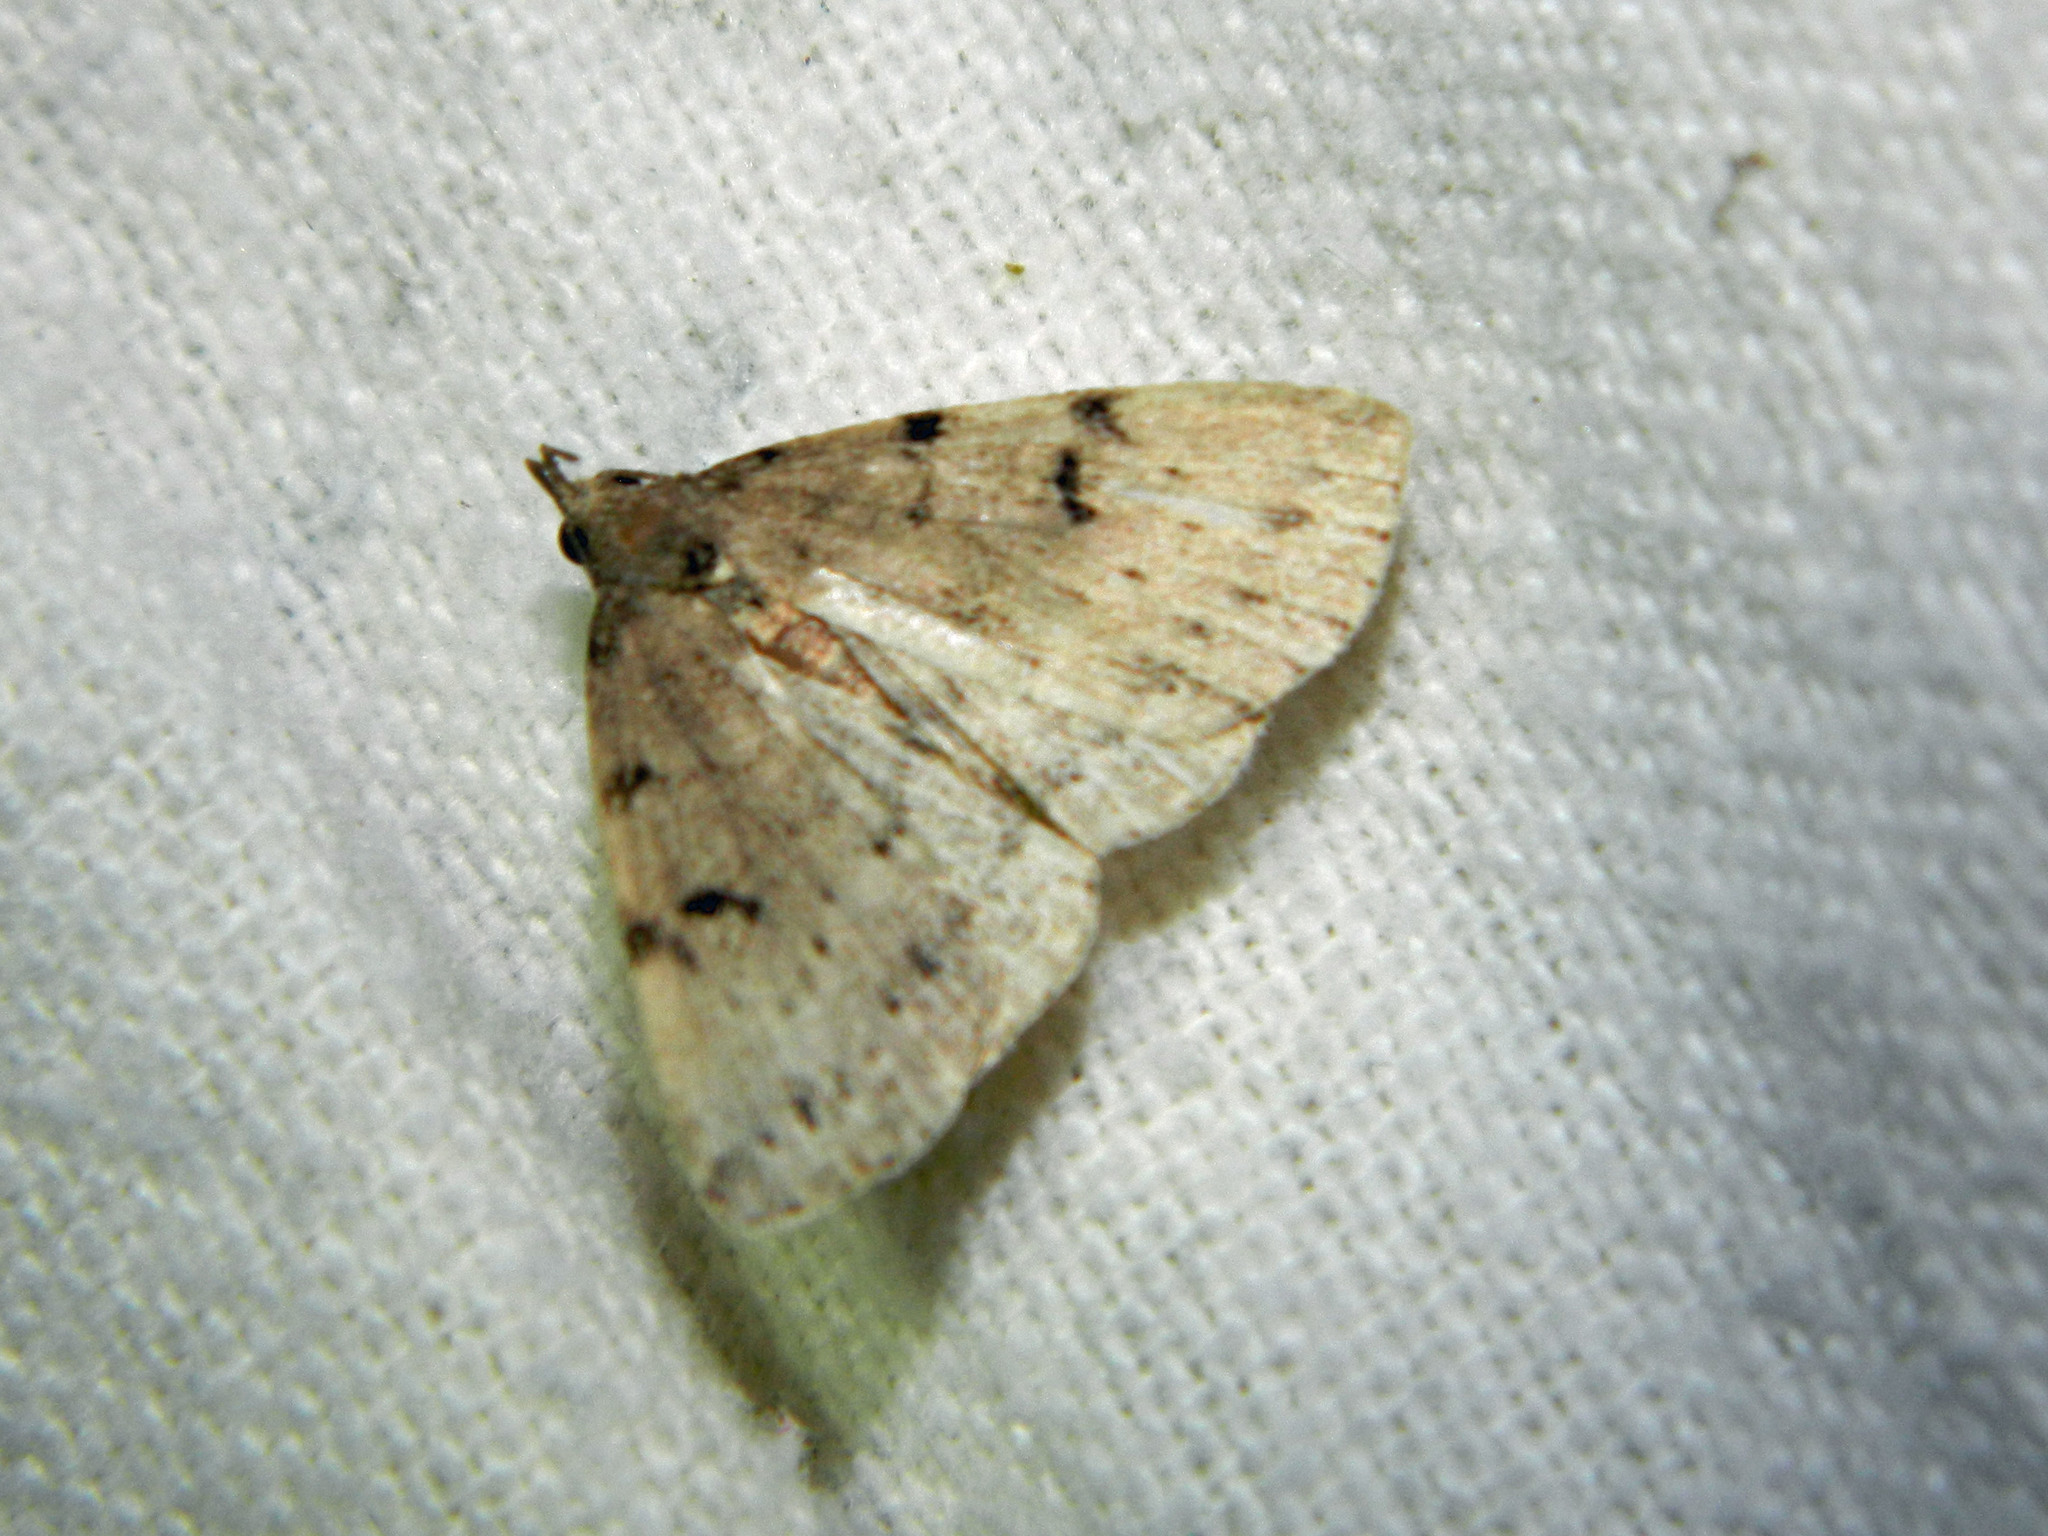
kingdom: Animalia
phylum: Arthropoda
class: Insecta
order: Lepidoptera
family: Erebidae
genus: Zanclognatha
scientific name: Zanclognatha lituralis
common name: Lettered fan-foot
